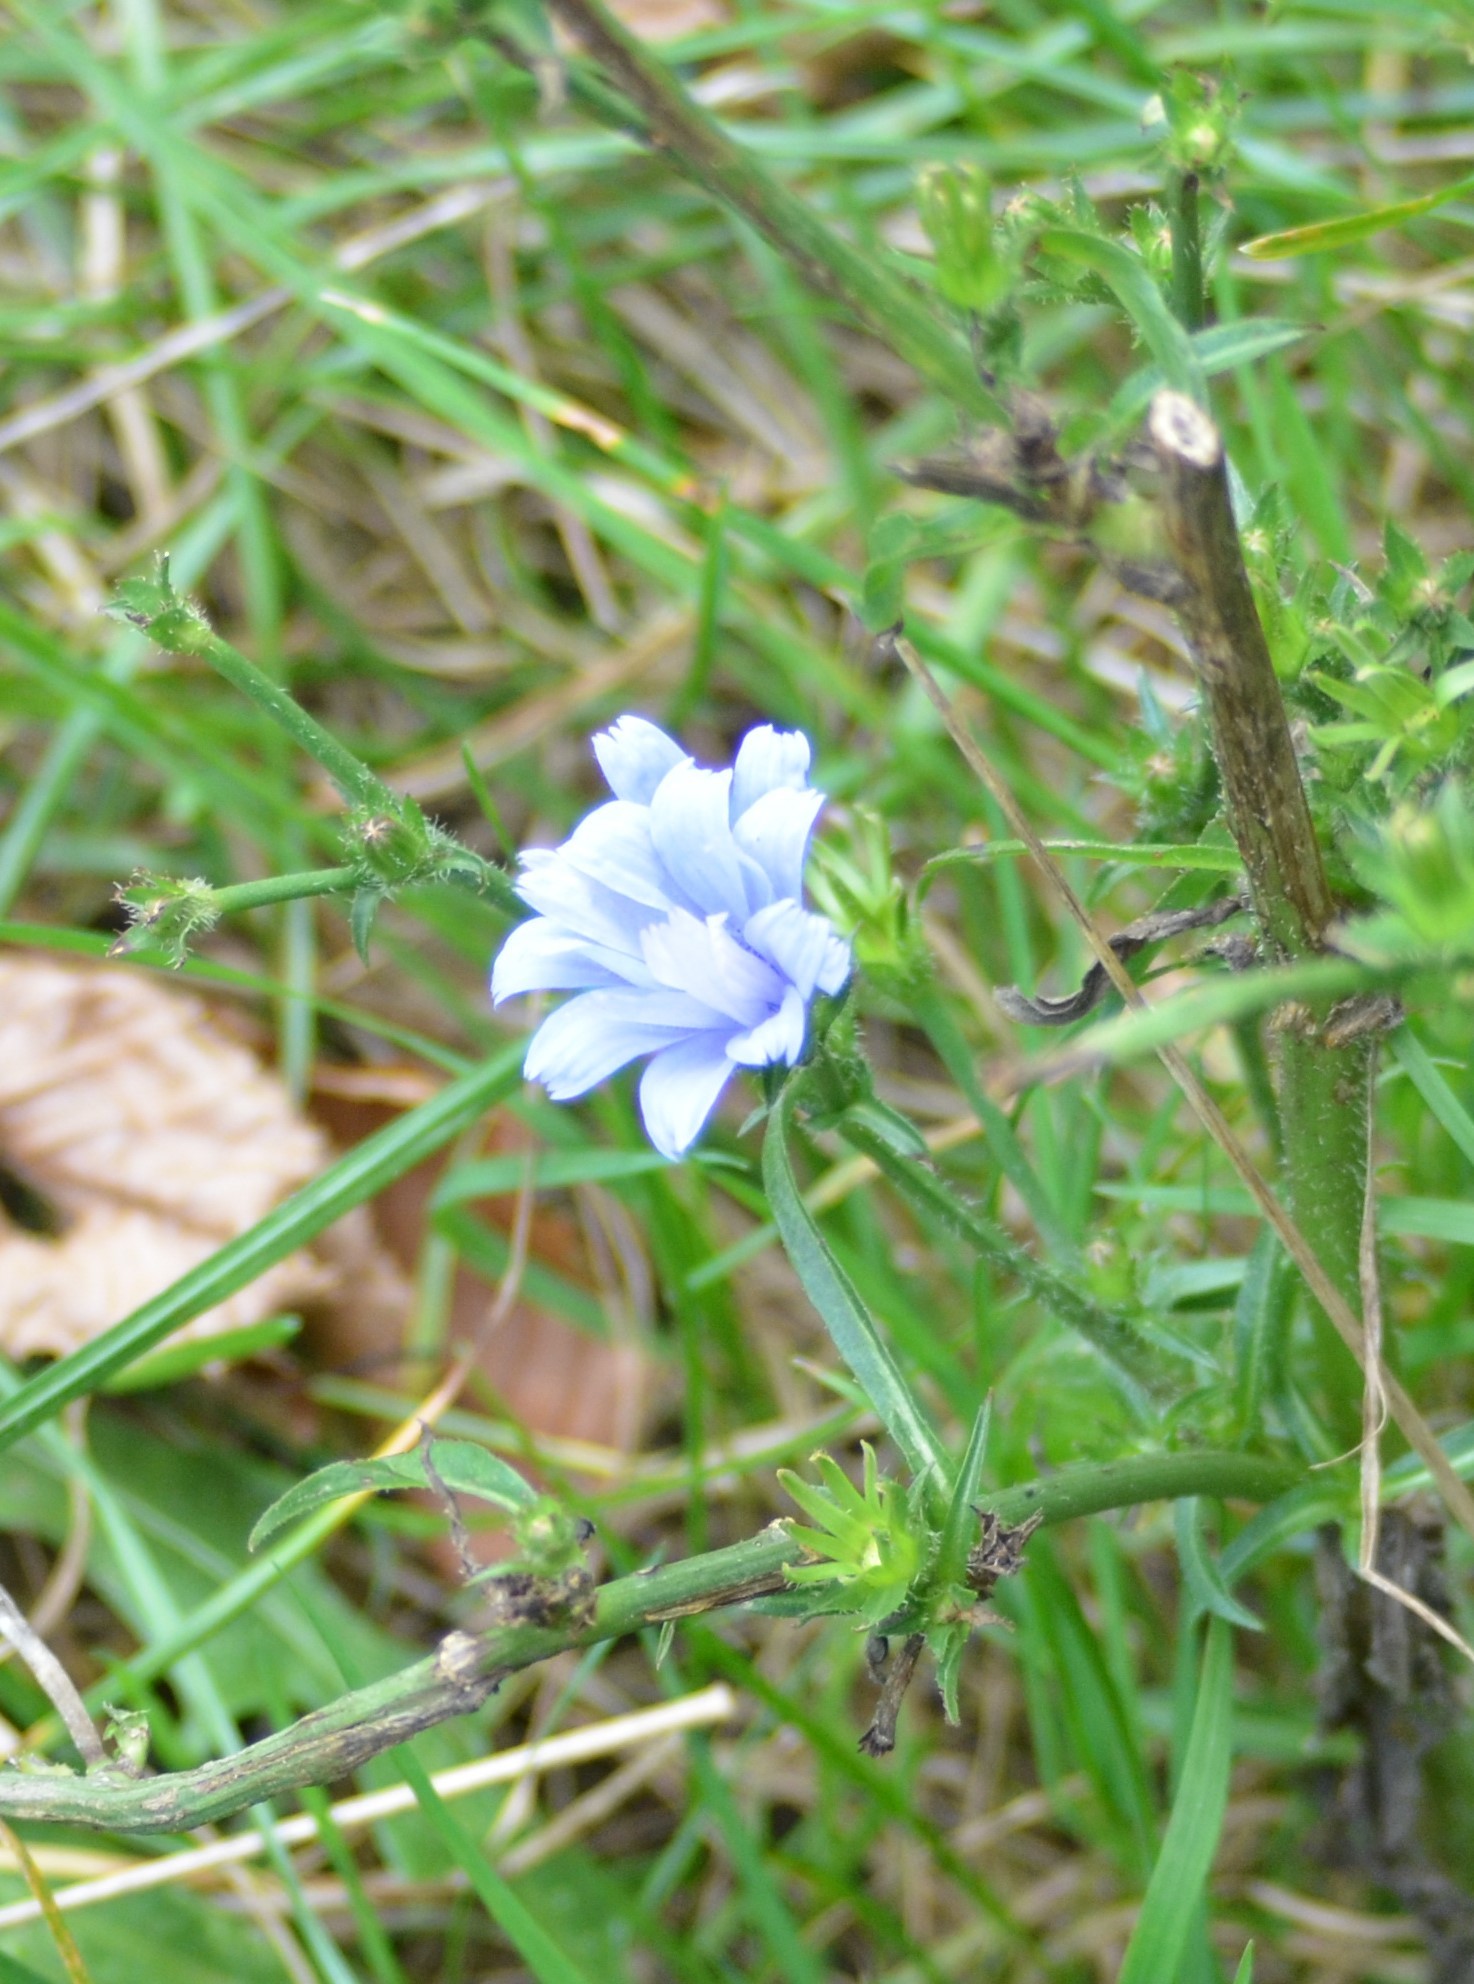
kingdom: Plantae
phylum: Tracheophyta
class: Magnoliopsida
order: Asterales
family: Asteraceae
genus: Cichorium
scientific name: Cichorium intybus
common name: Chicory
